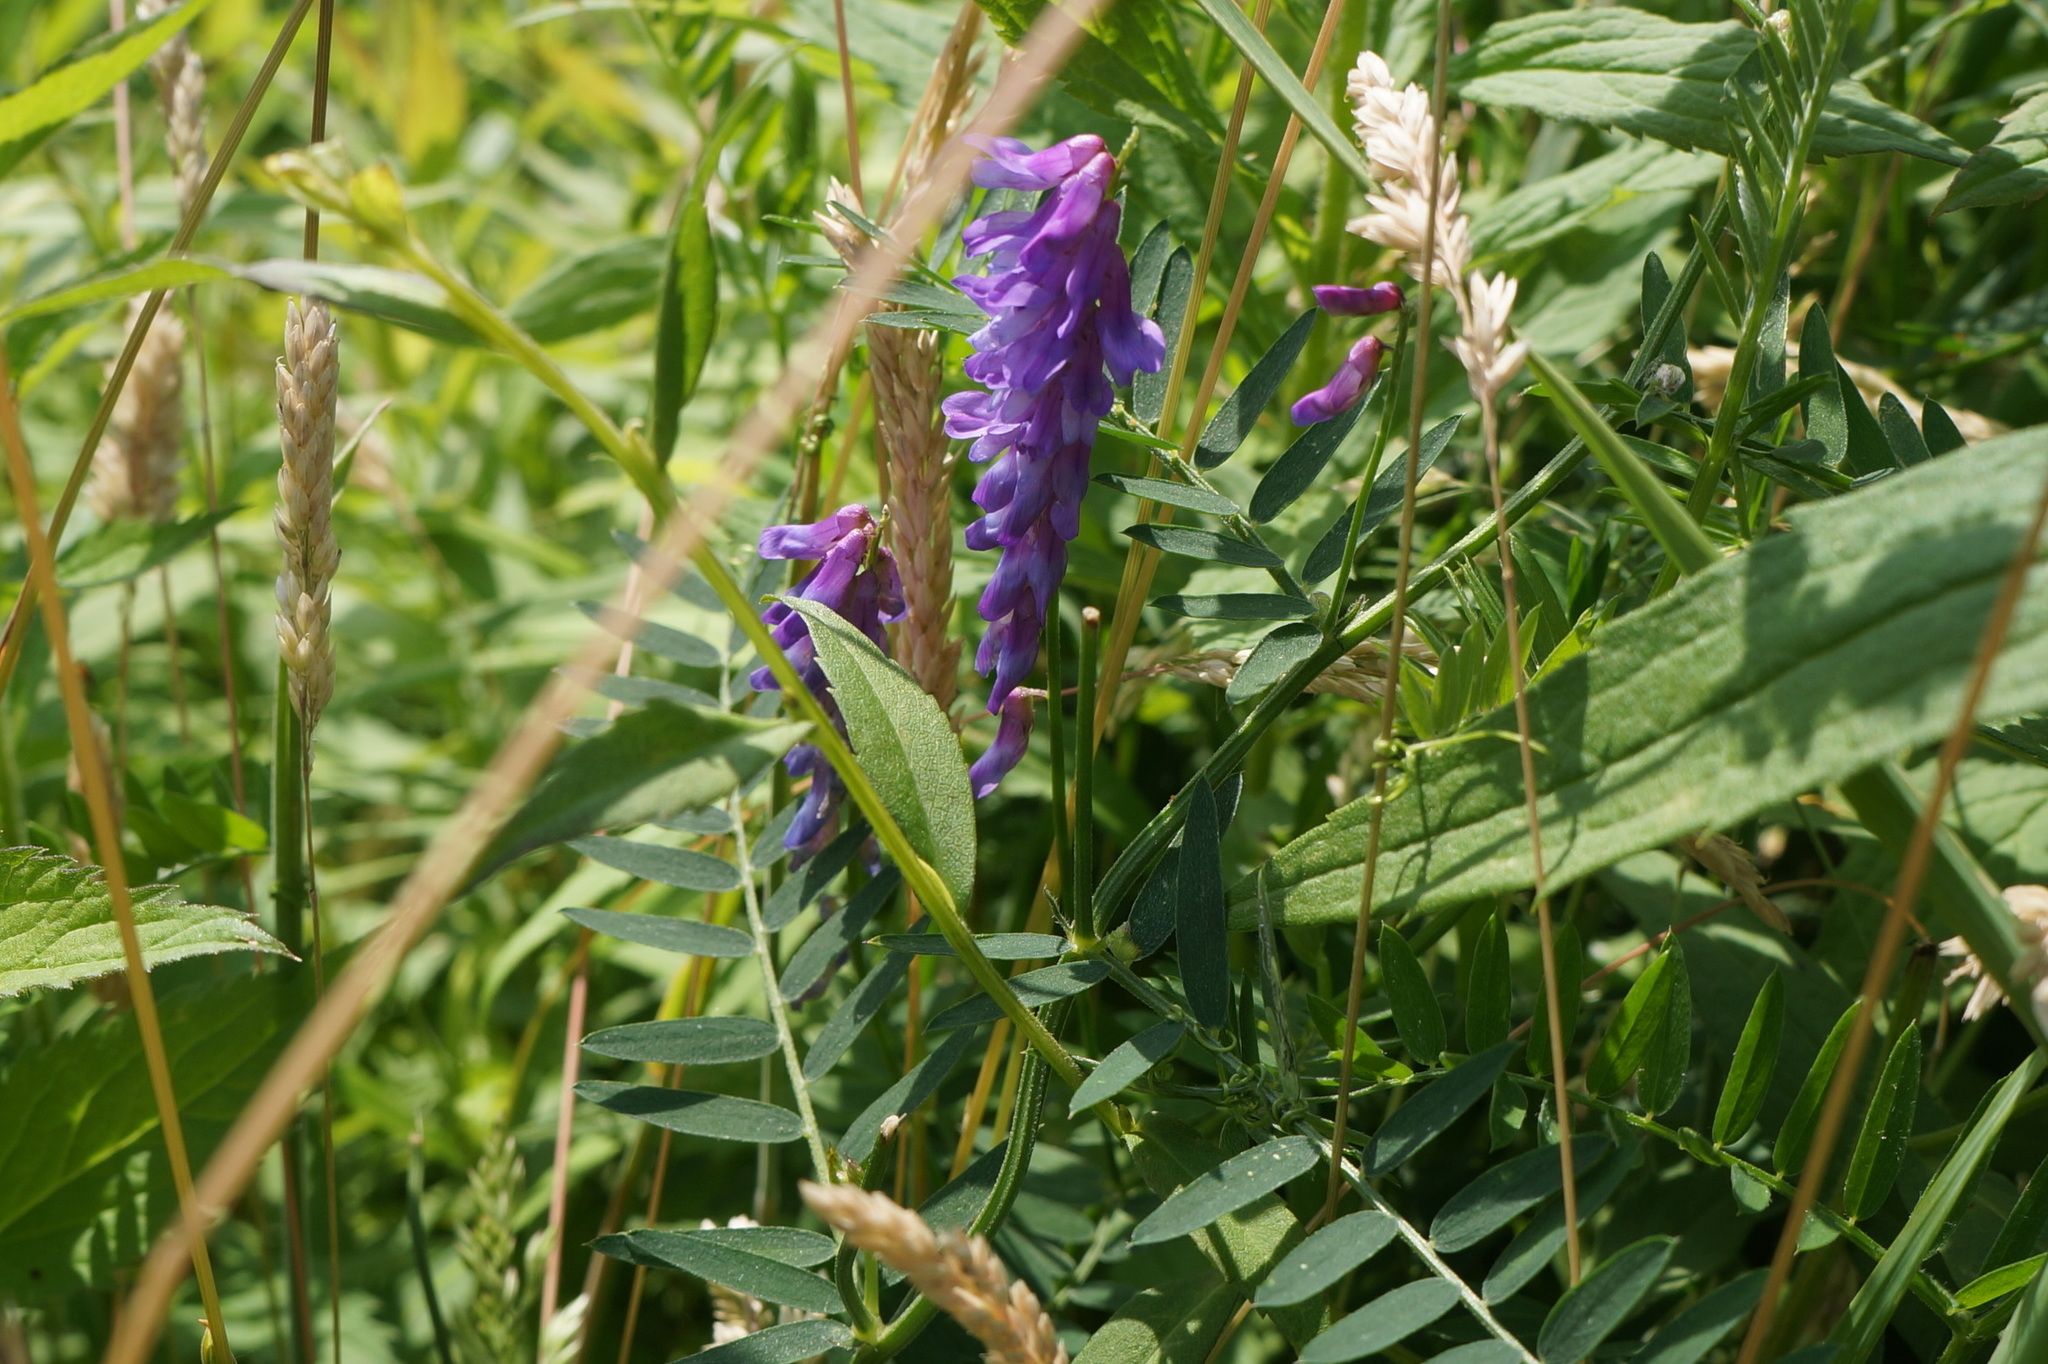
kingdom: Plantae
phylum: Tracheophyta
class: Magnoliopsida
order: Fabales
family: Fabaceae
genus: Vicia
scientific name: Vicia cracca
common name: Bird vetch
